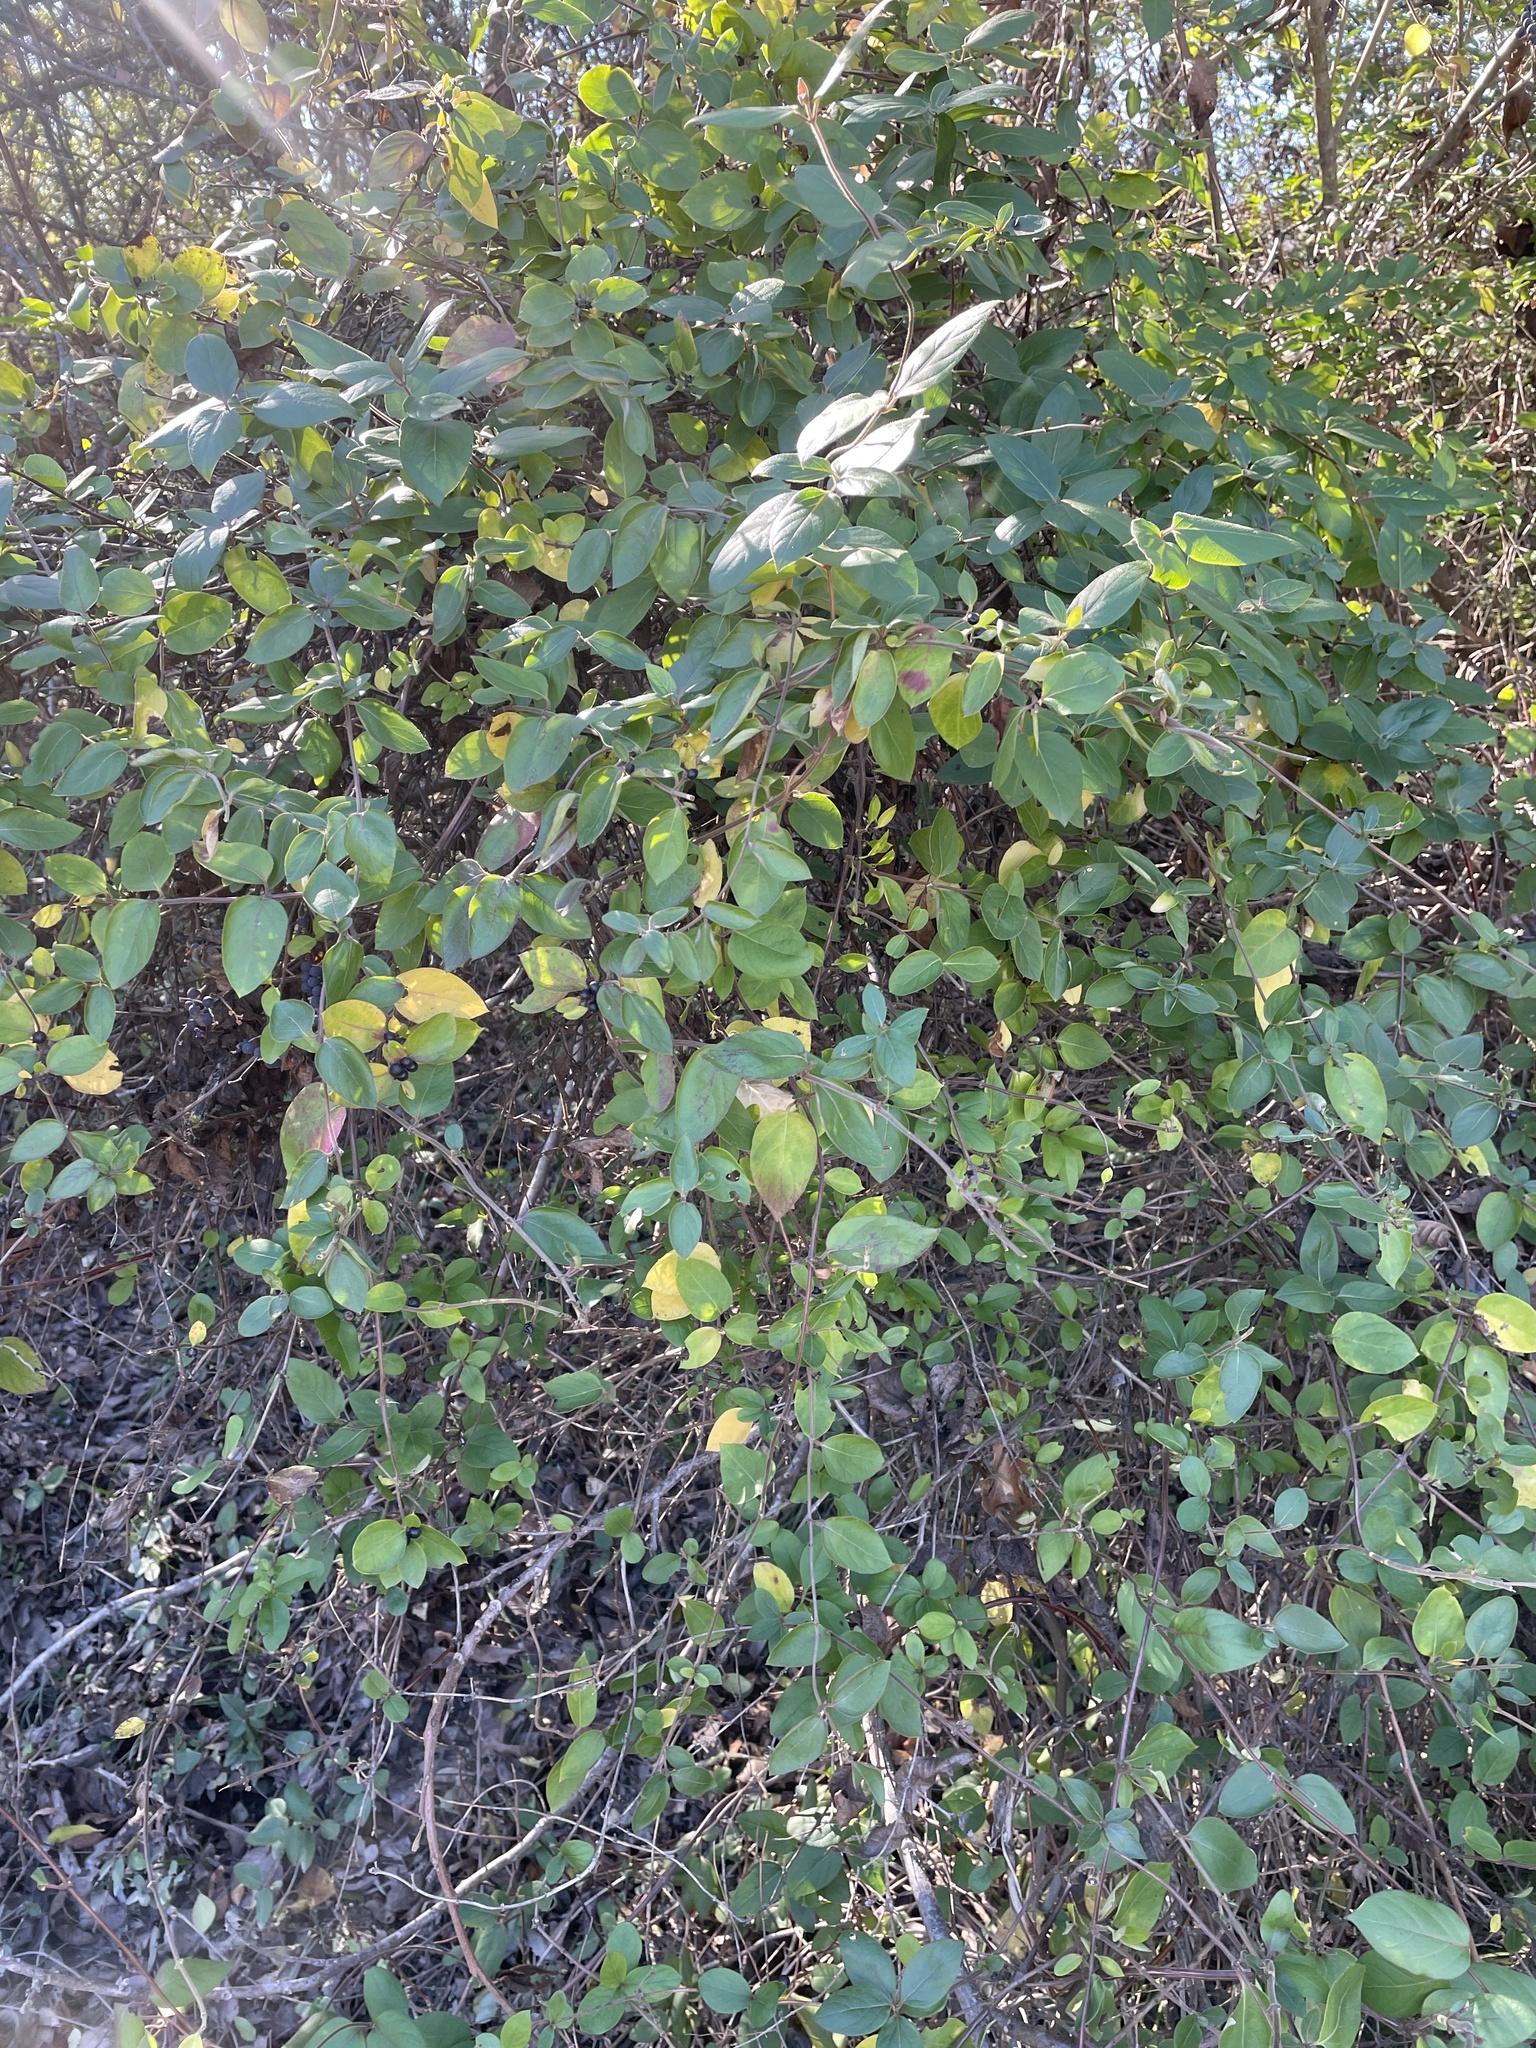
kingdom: Plantae
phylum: Tracheophyta
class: Magnoliopsida
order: Dipsacales
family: Caprifoliaceae
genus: Lonicera
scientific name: Lonicera japonica
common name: Japanese honeysuckle
